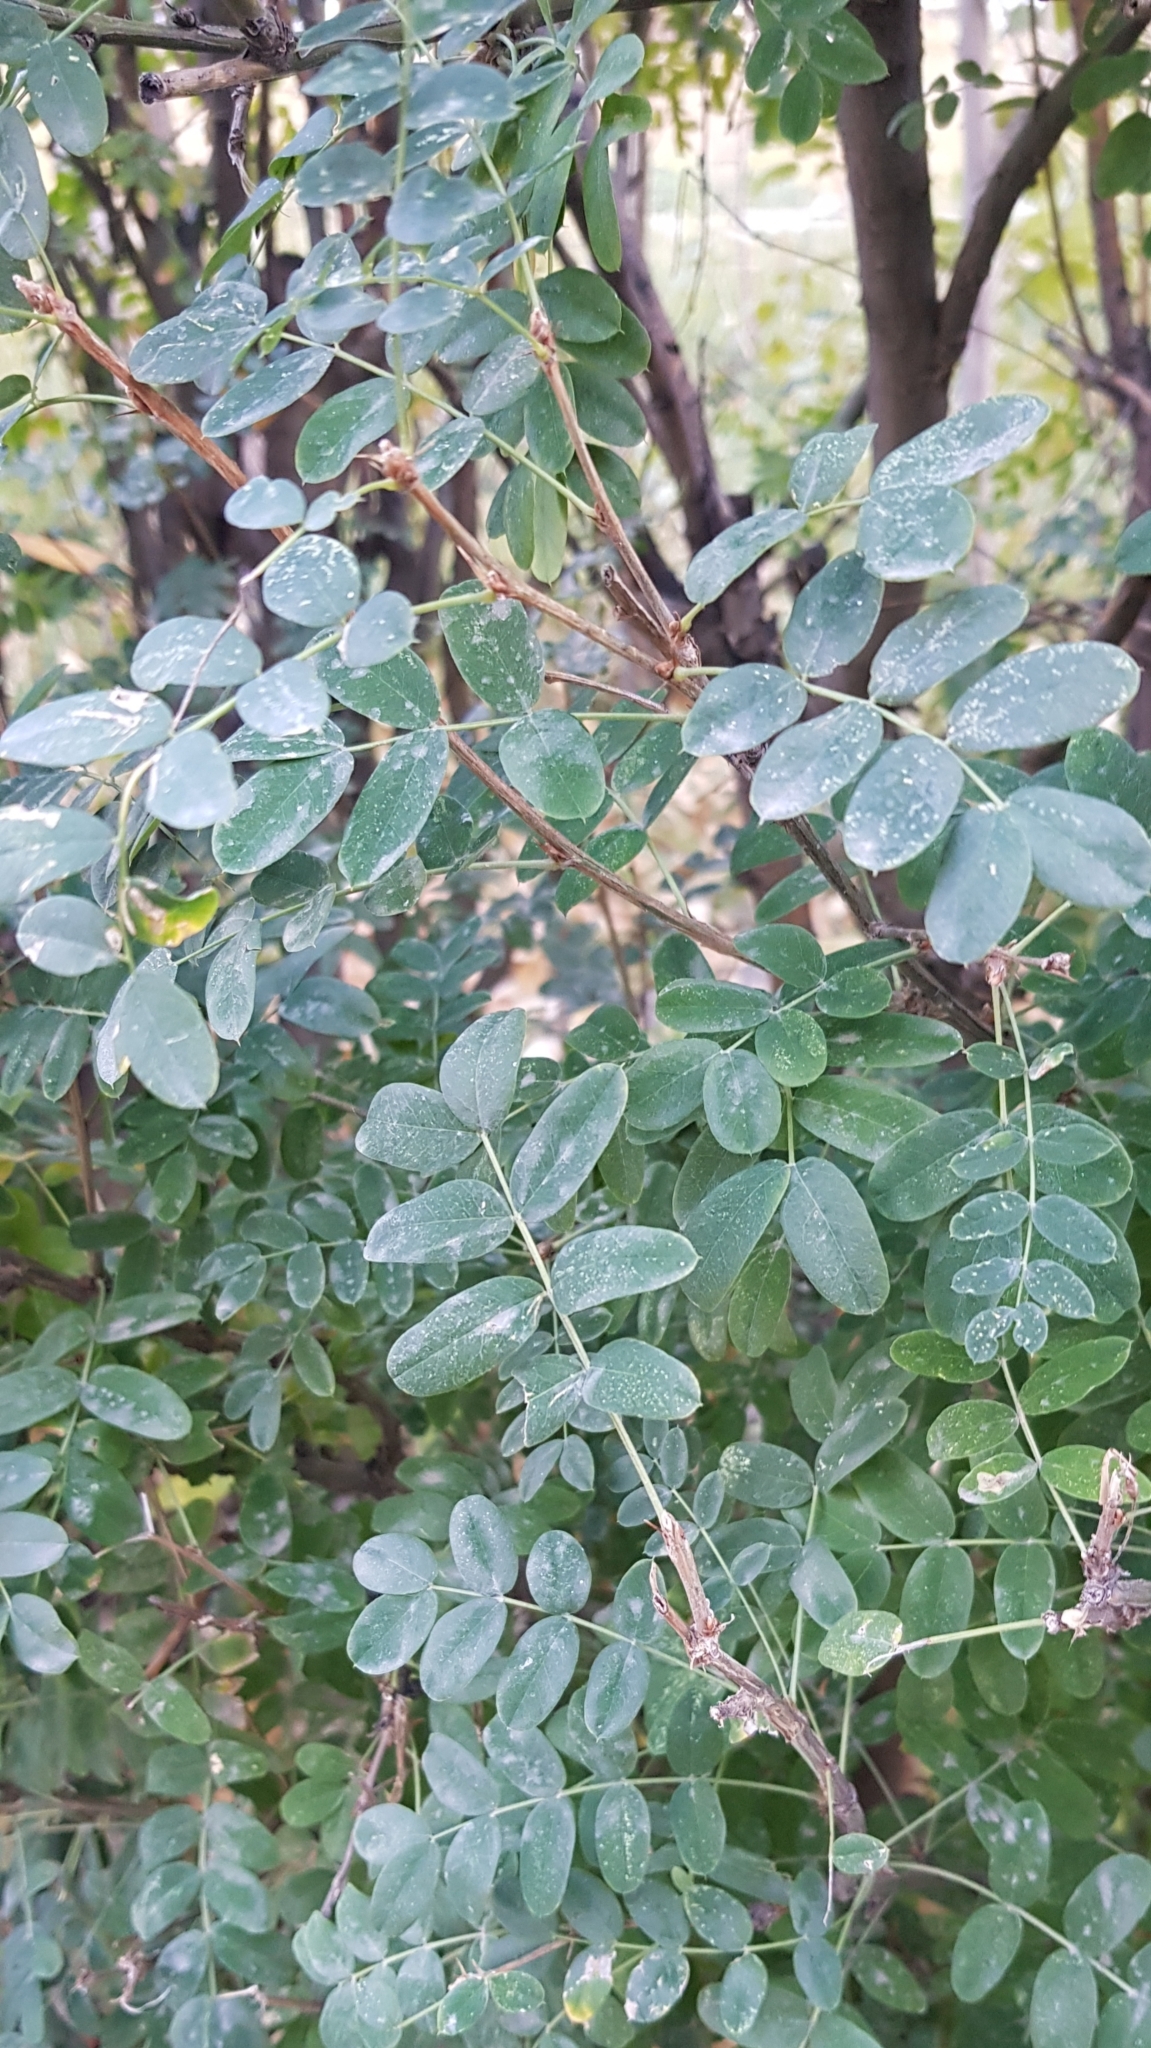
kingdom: Plantae
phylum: Tracheophyta
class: Magnoliopsida
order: Fabales
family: Fabaceae
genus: Caragana
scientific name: Caragana arborescens
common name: Siberian peashrub
